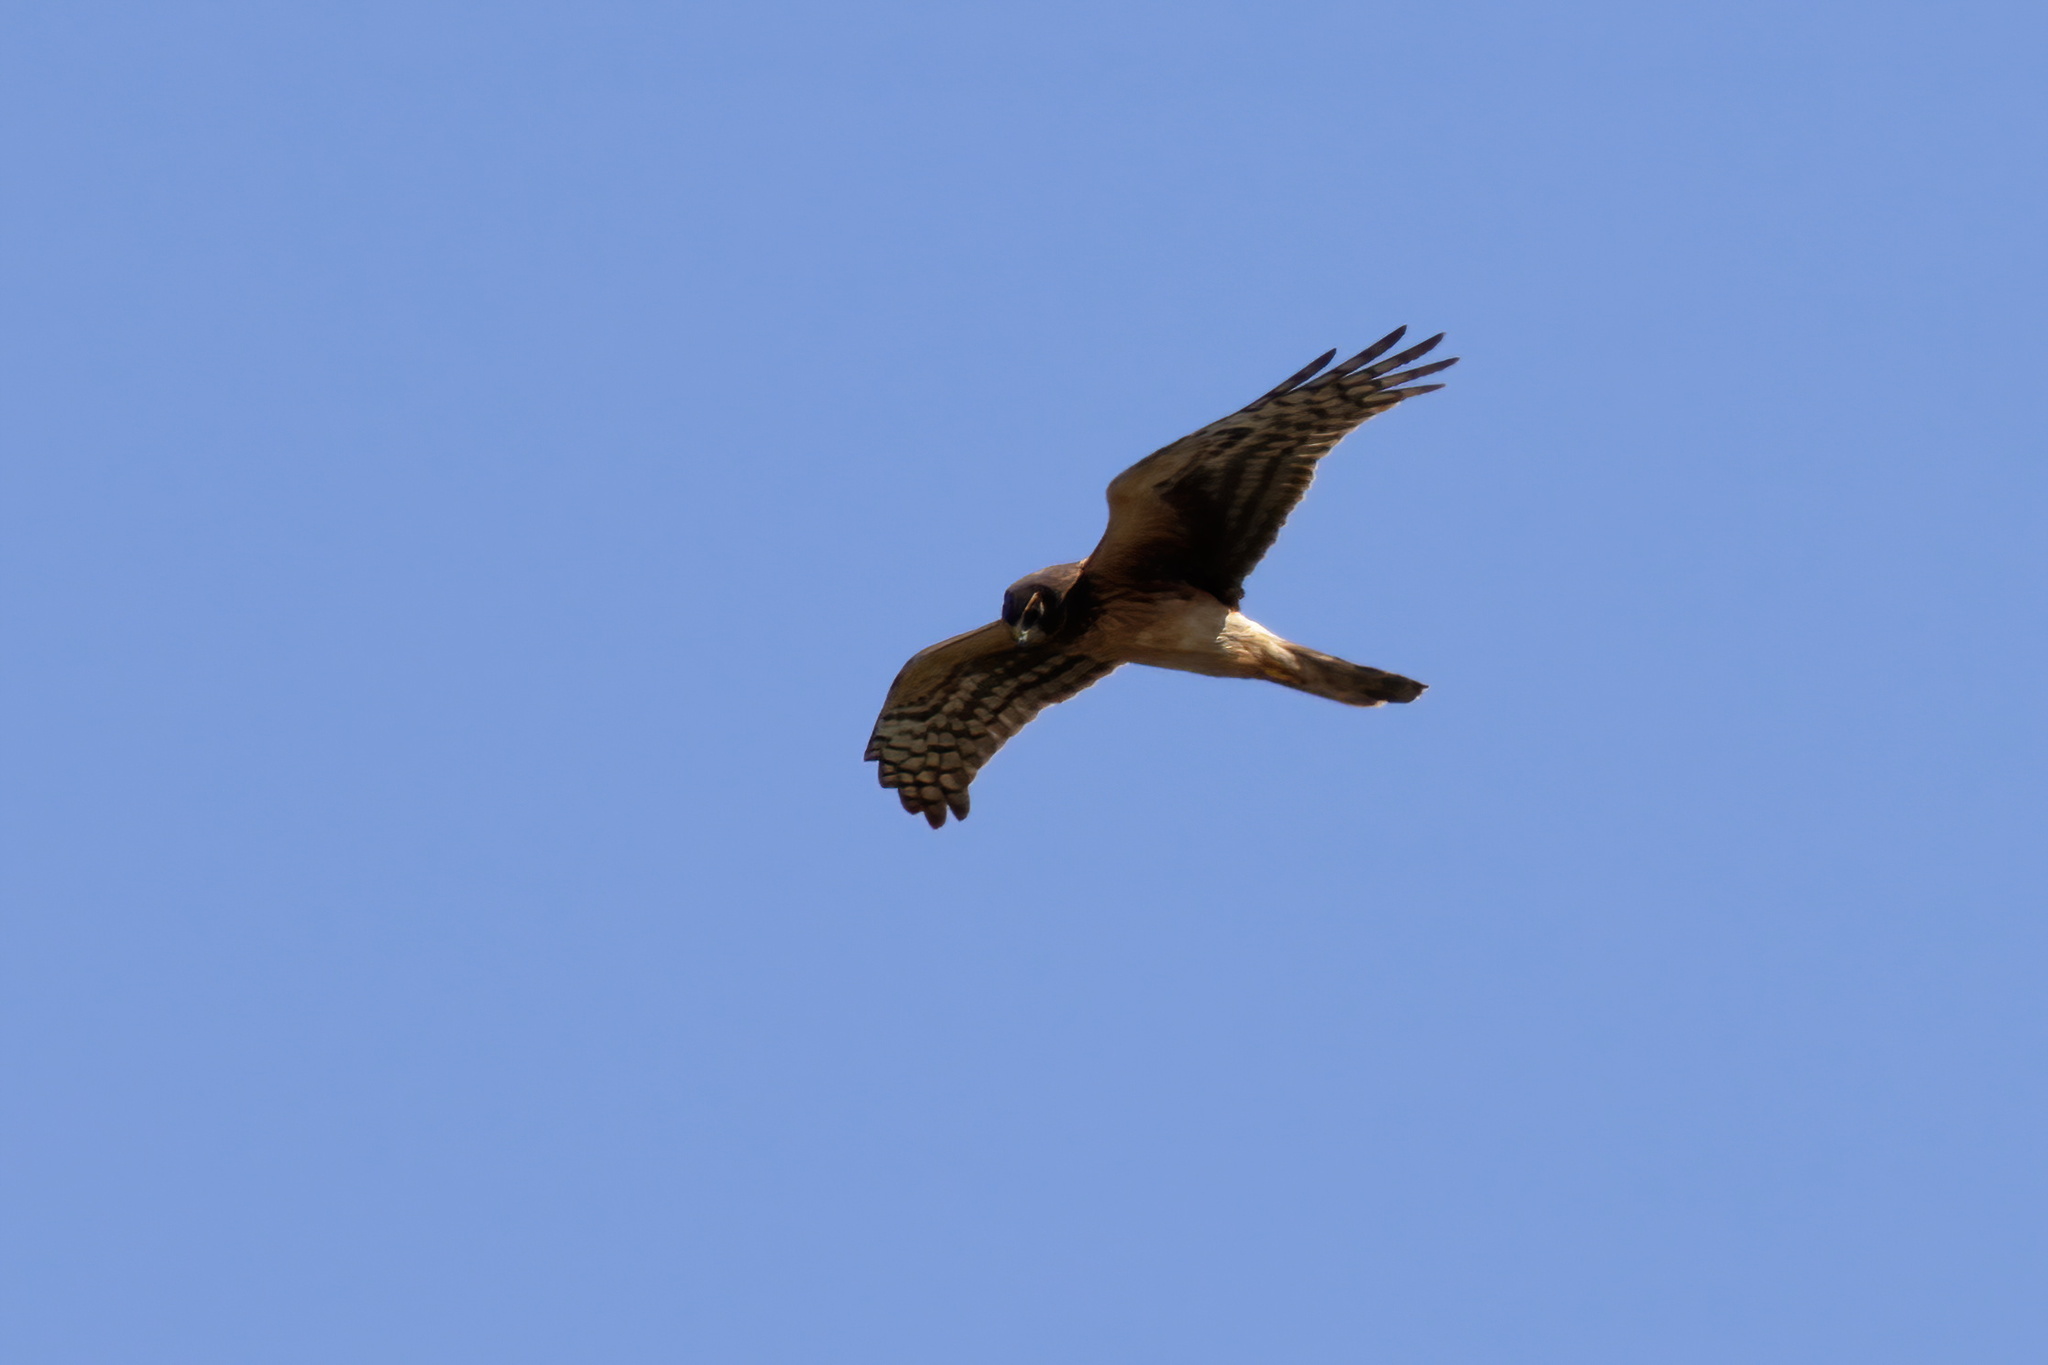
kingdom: Animalia
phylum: Chordata
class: Aves
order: Accipitriformes
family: Accipitridae
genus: Circus
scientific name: Circus cyaneus
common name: Hen harrier
